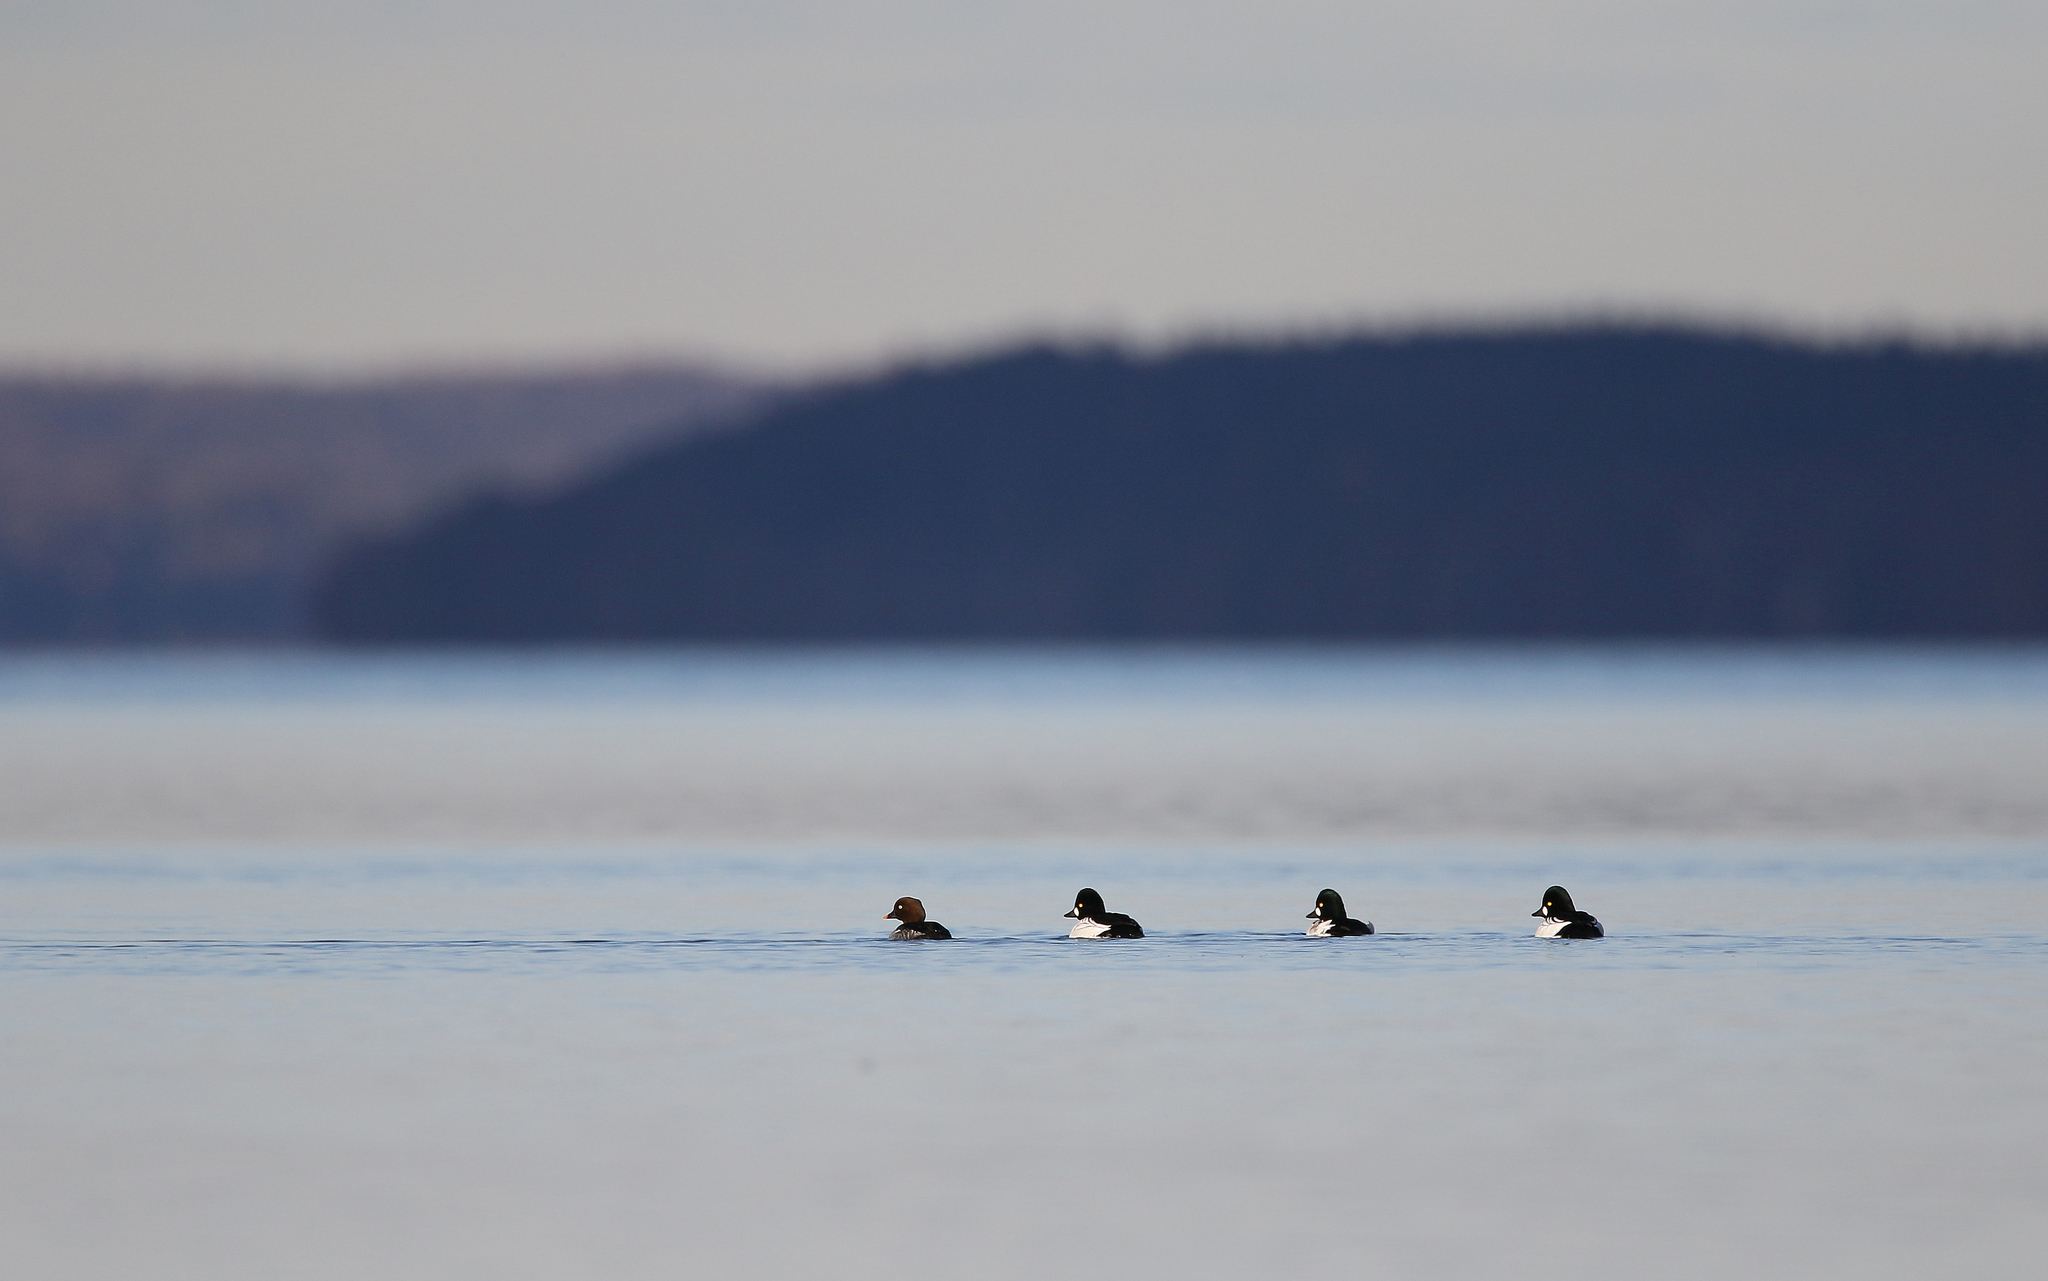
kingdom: Animalia
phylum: Chordata
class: Aves
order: Anseriformes
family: Anatidae
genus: Bucephala
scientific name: Bucephala clangula
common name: Common goldeneye
